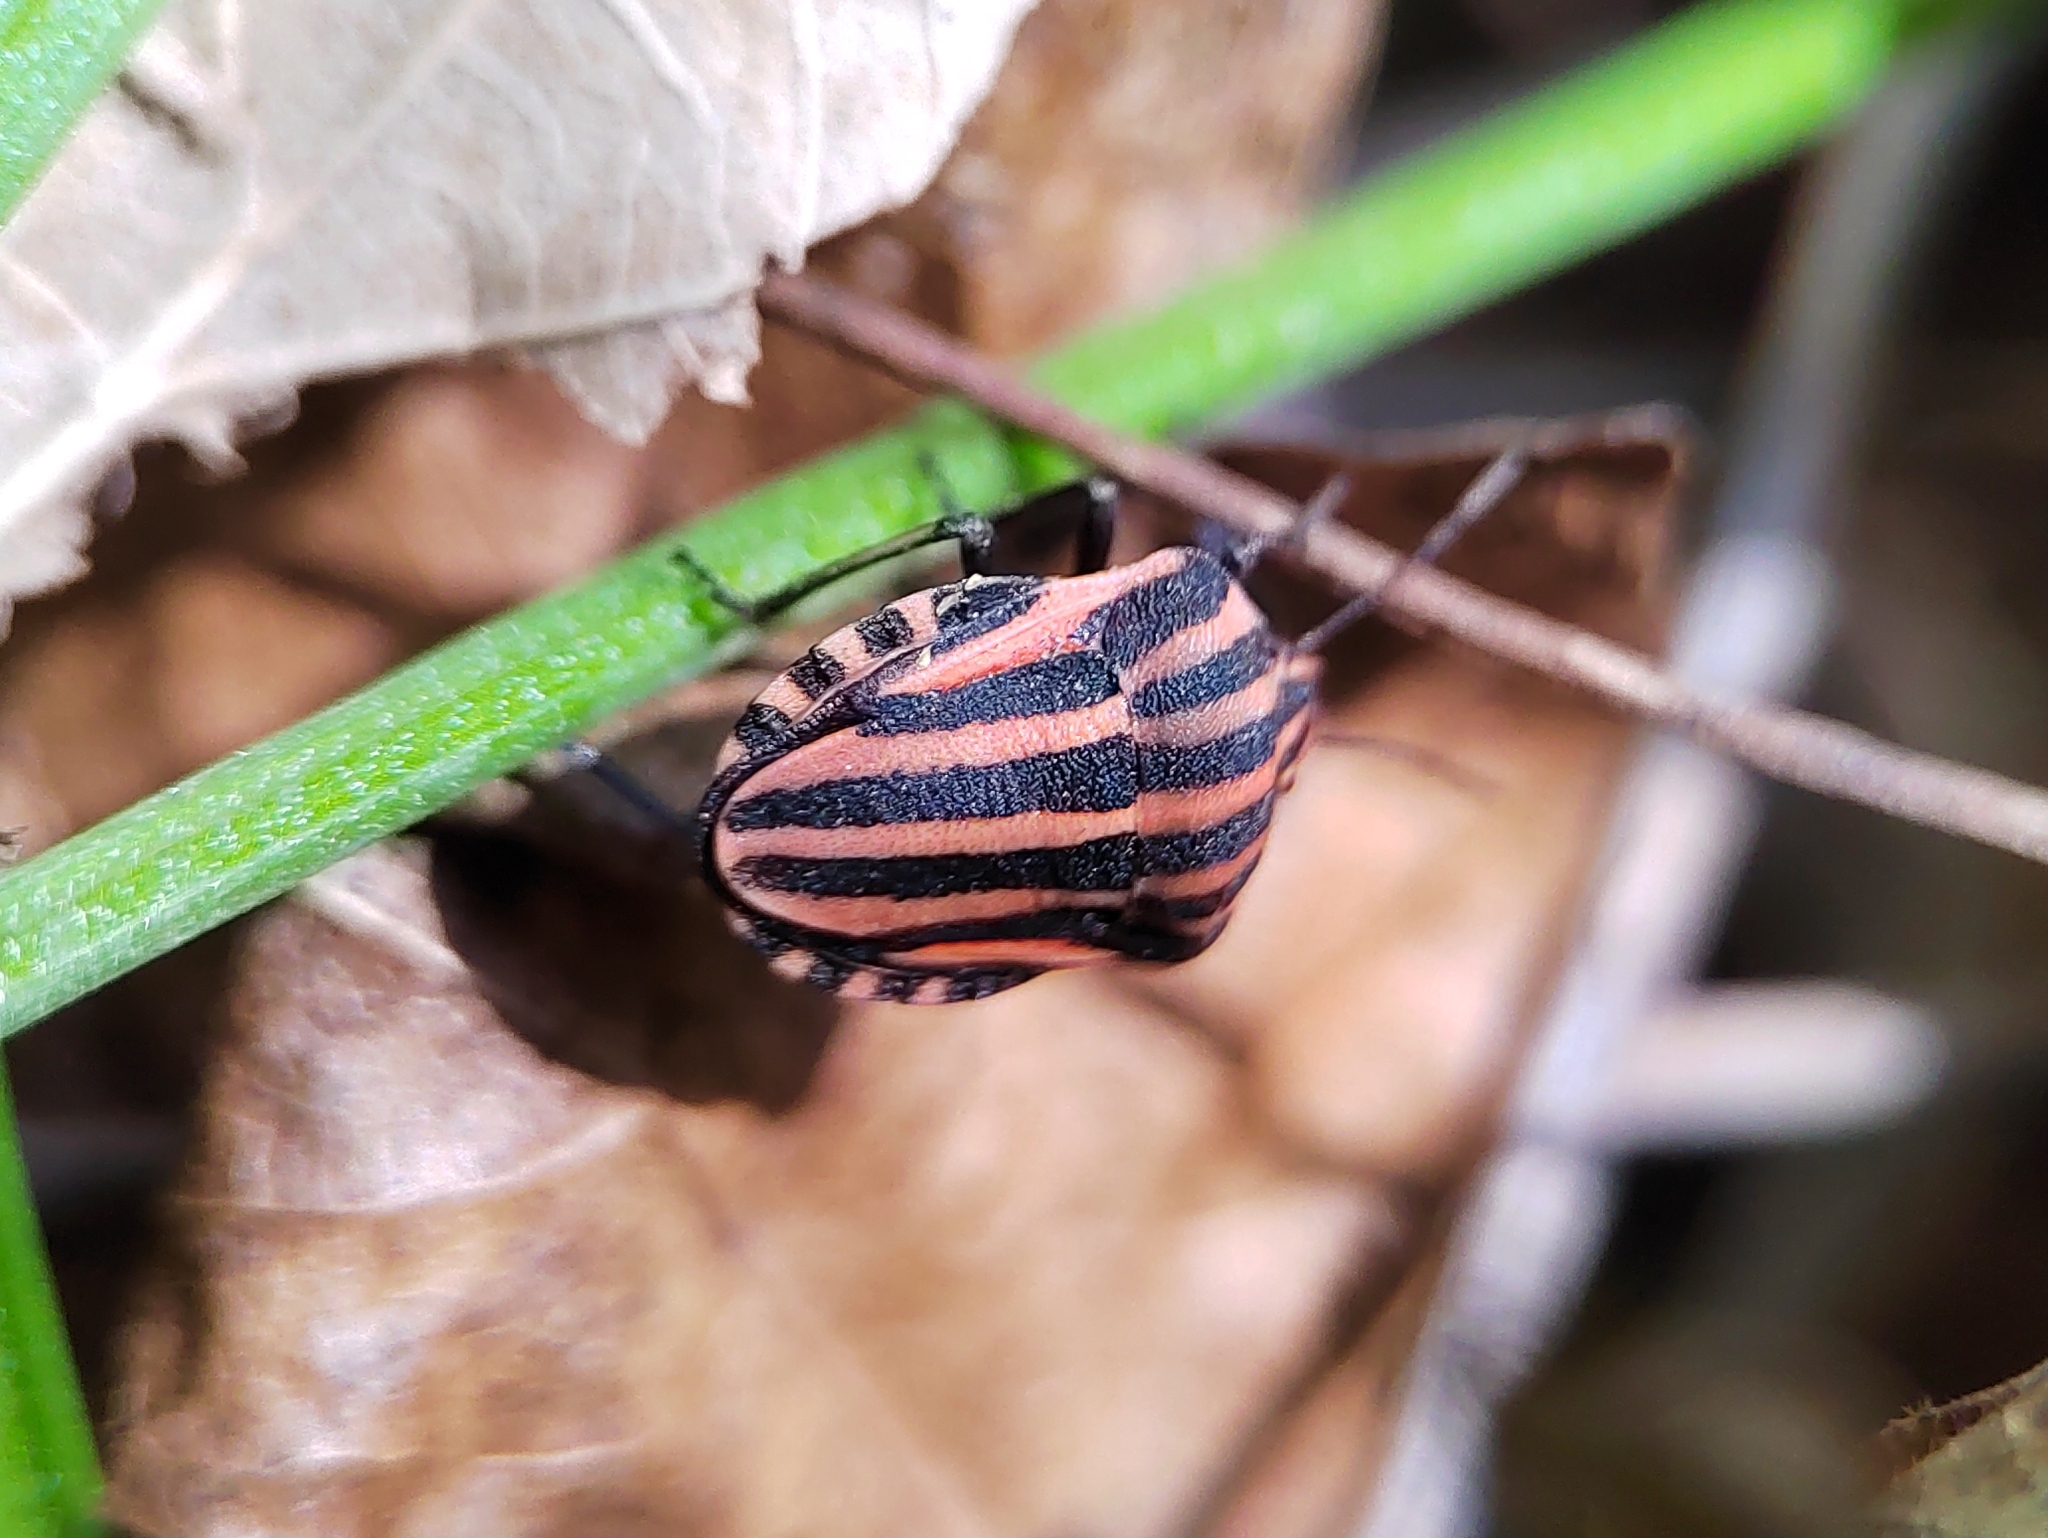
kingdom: Animalia
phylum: Arthropoda
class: Insecta
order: Hemiptera
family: Pentatomidae
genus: Graphosoma
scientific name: Graphosoma italicum
